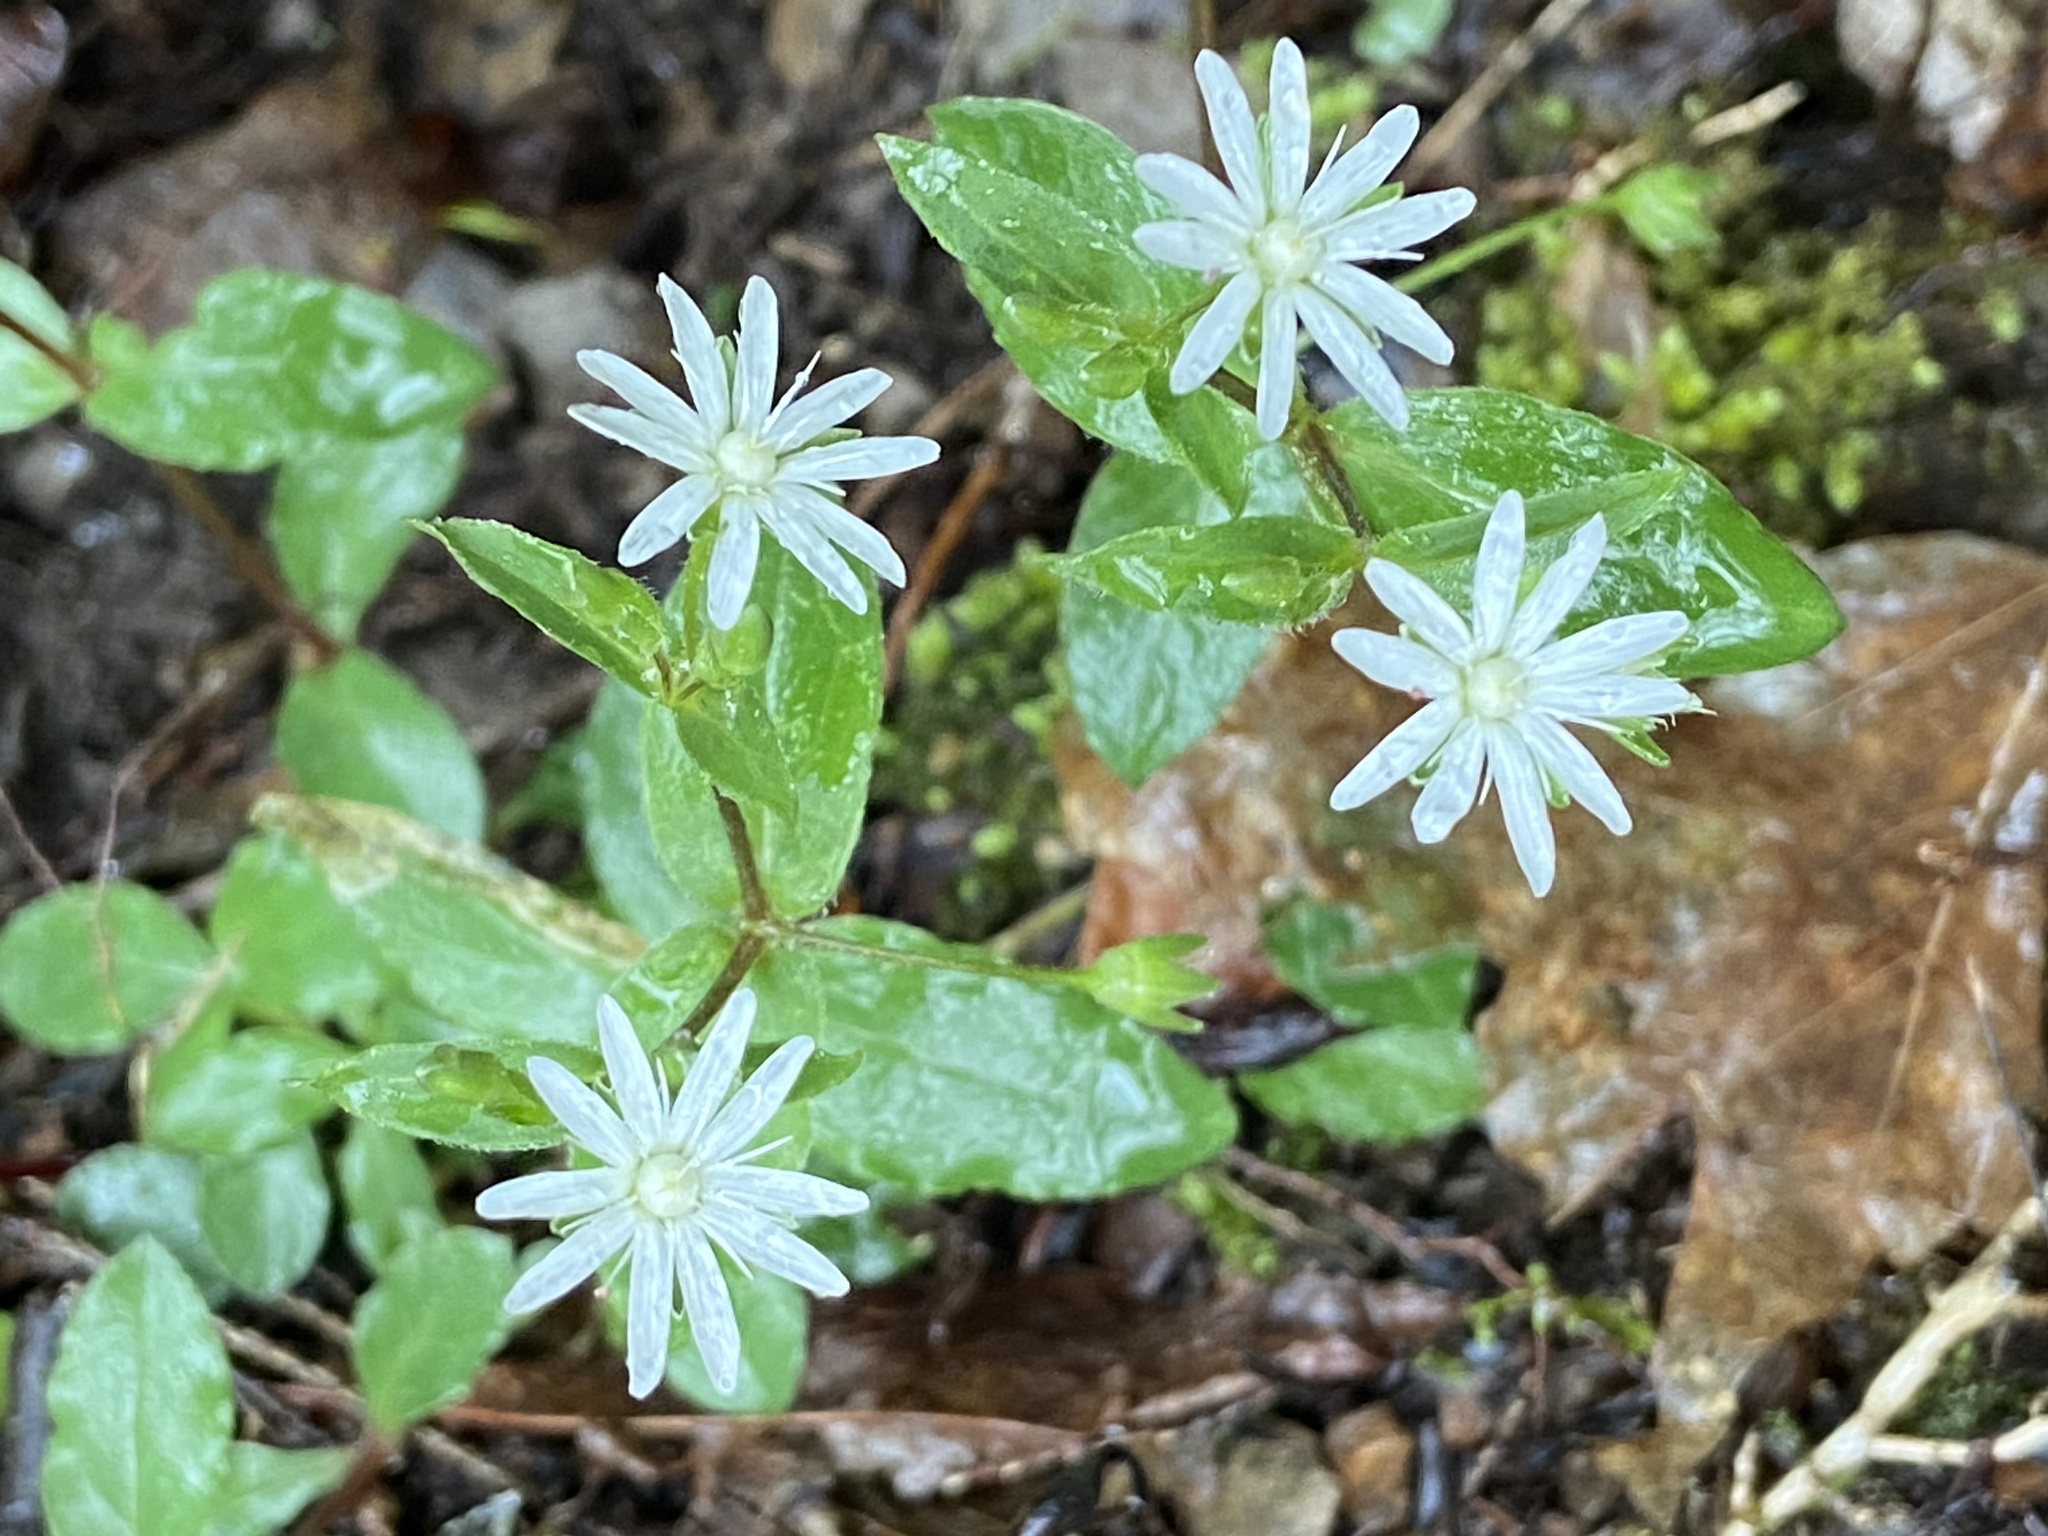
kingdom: Plantae
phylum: Tracheophyta
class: Magnoliopsida
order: Caryophyllales
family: Caryophyllaceae
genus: Stellaria
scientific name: Stellaria pubera
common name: Star chickweed
